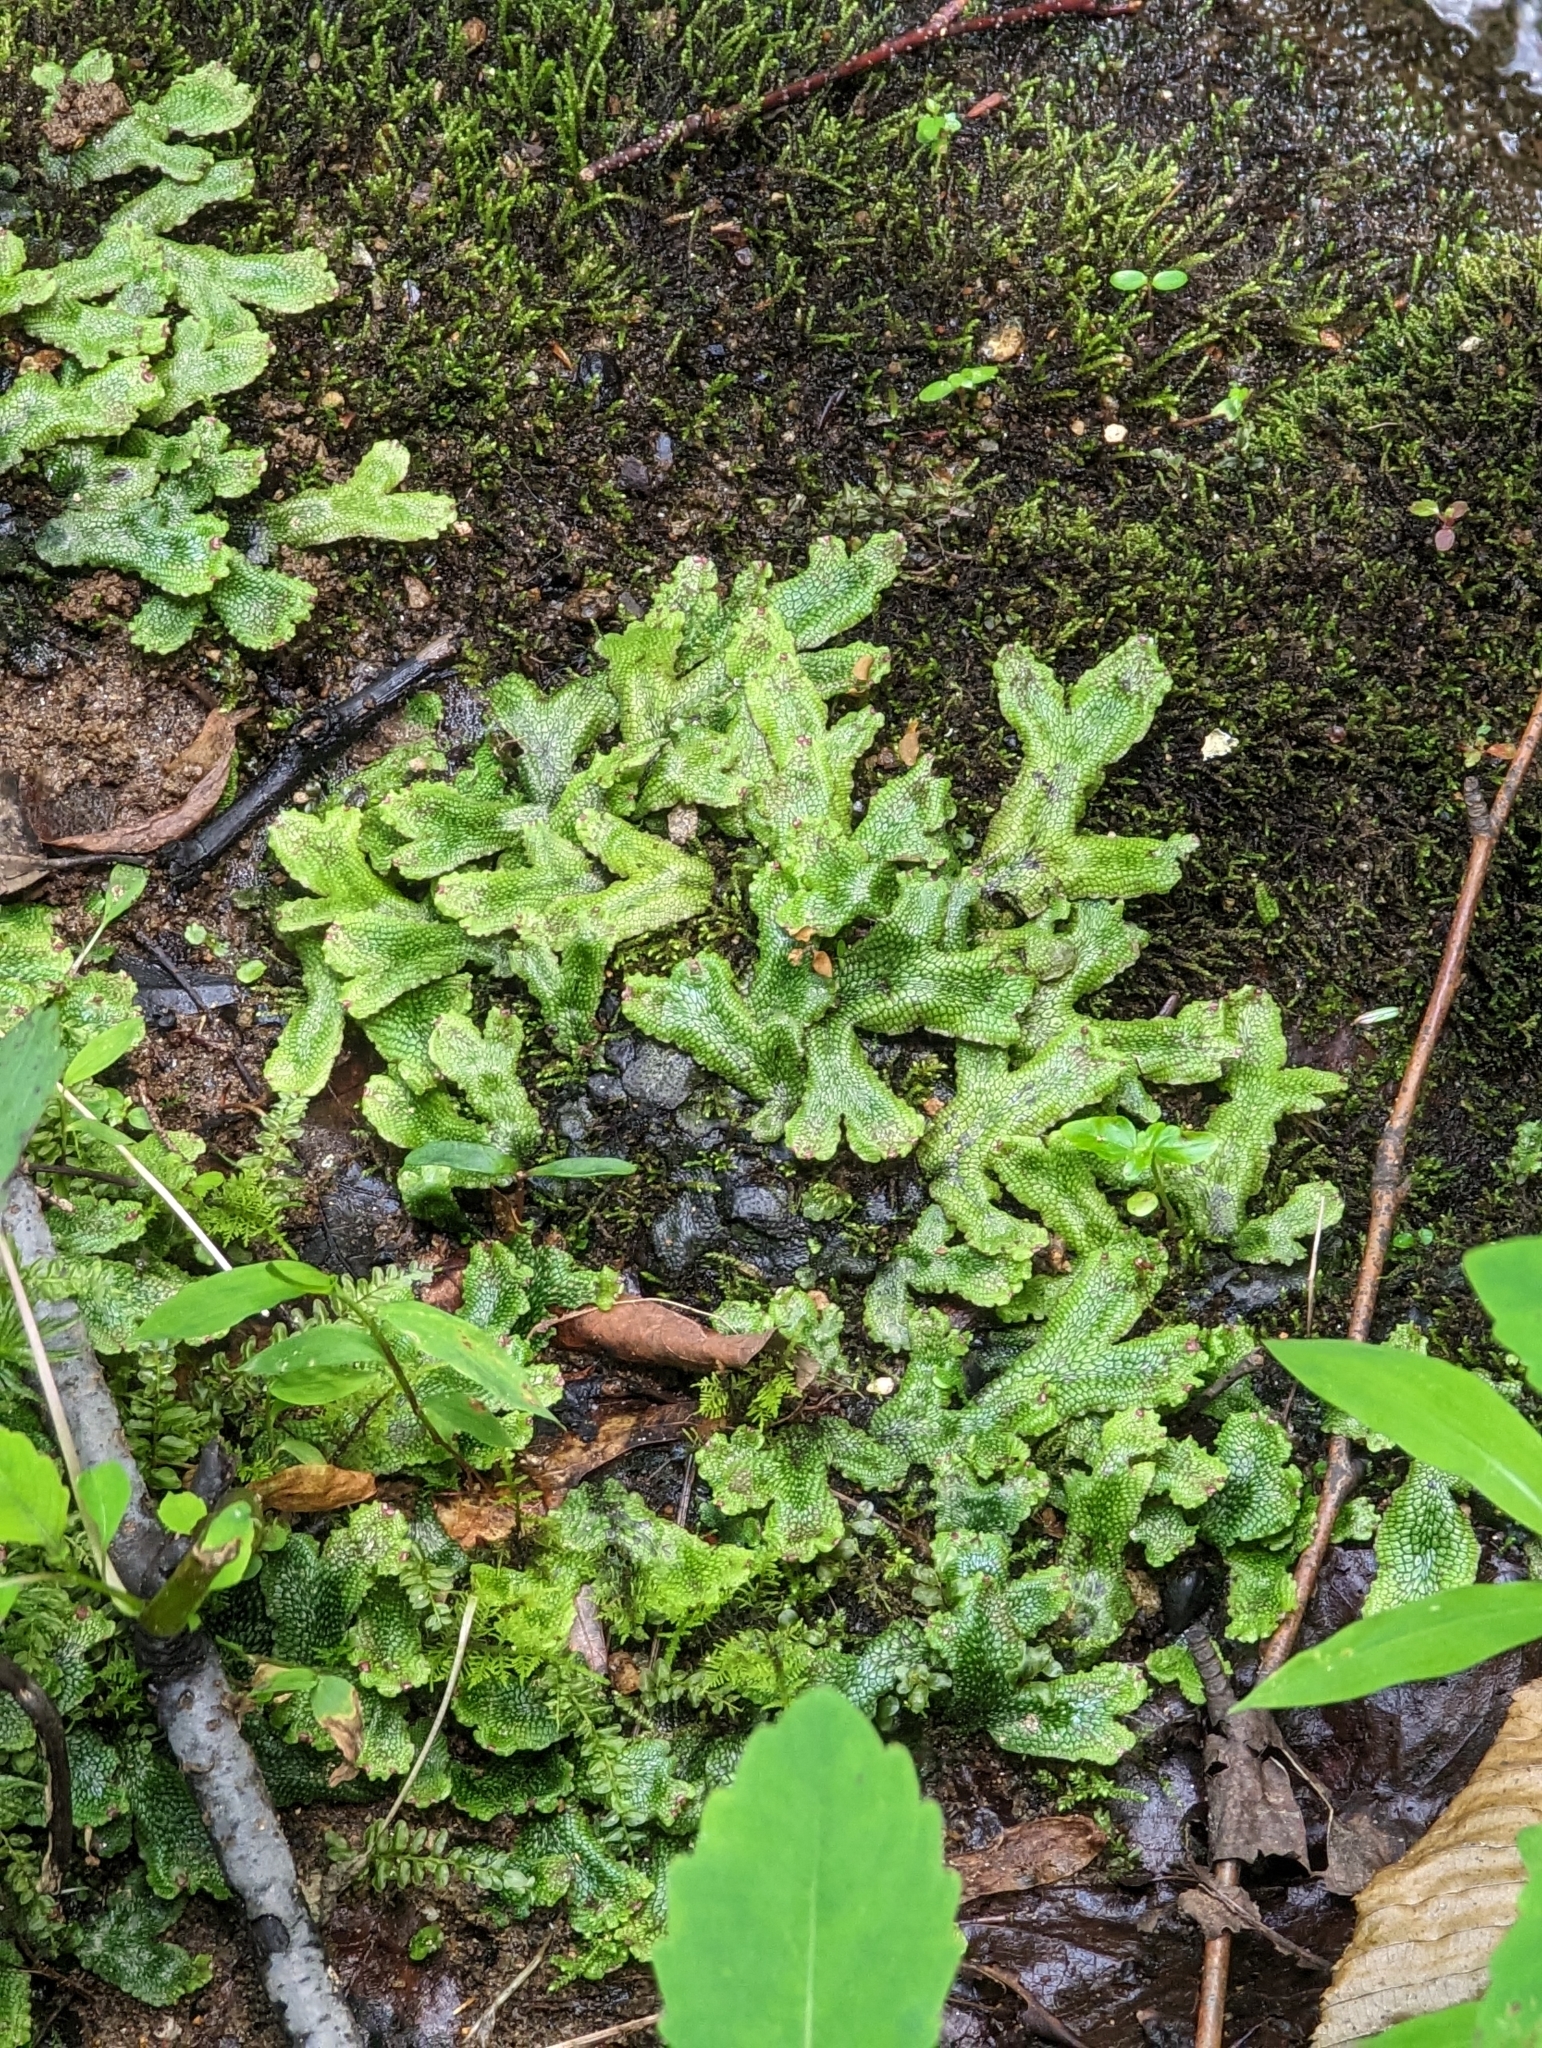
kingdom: Plantae
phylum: Marchantiophyta
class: Marchantiopsida
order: Marchantiales
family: Conocephalaceae
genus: Conocephalum
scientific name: Conocephalum salebrosum
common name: Cat-tongue liverwort
